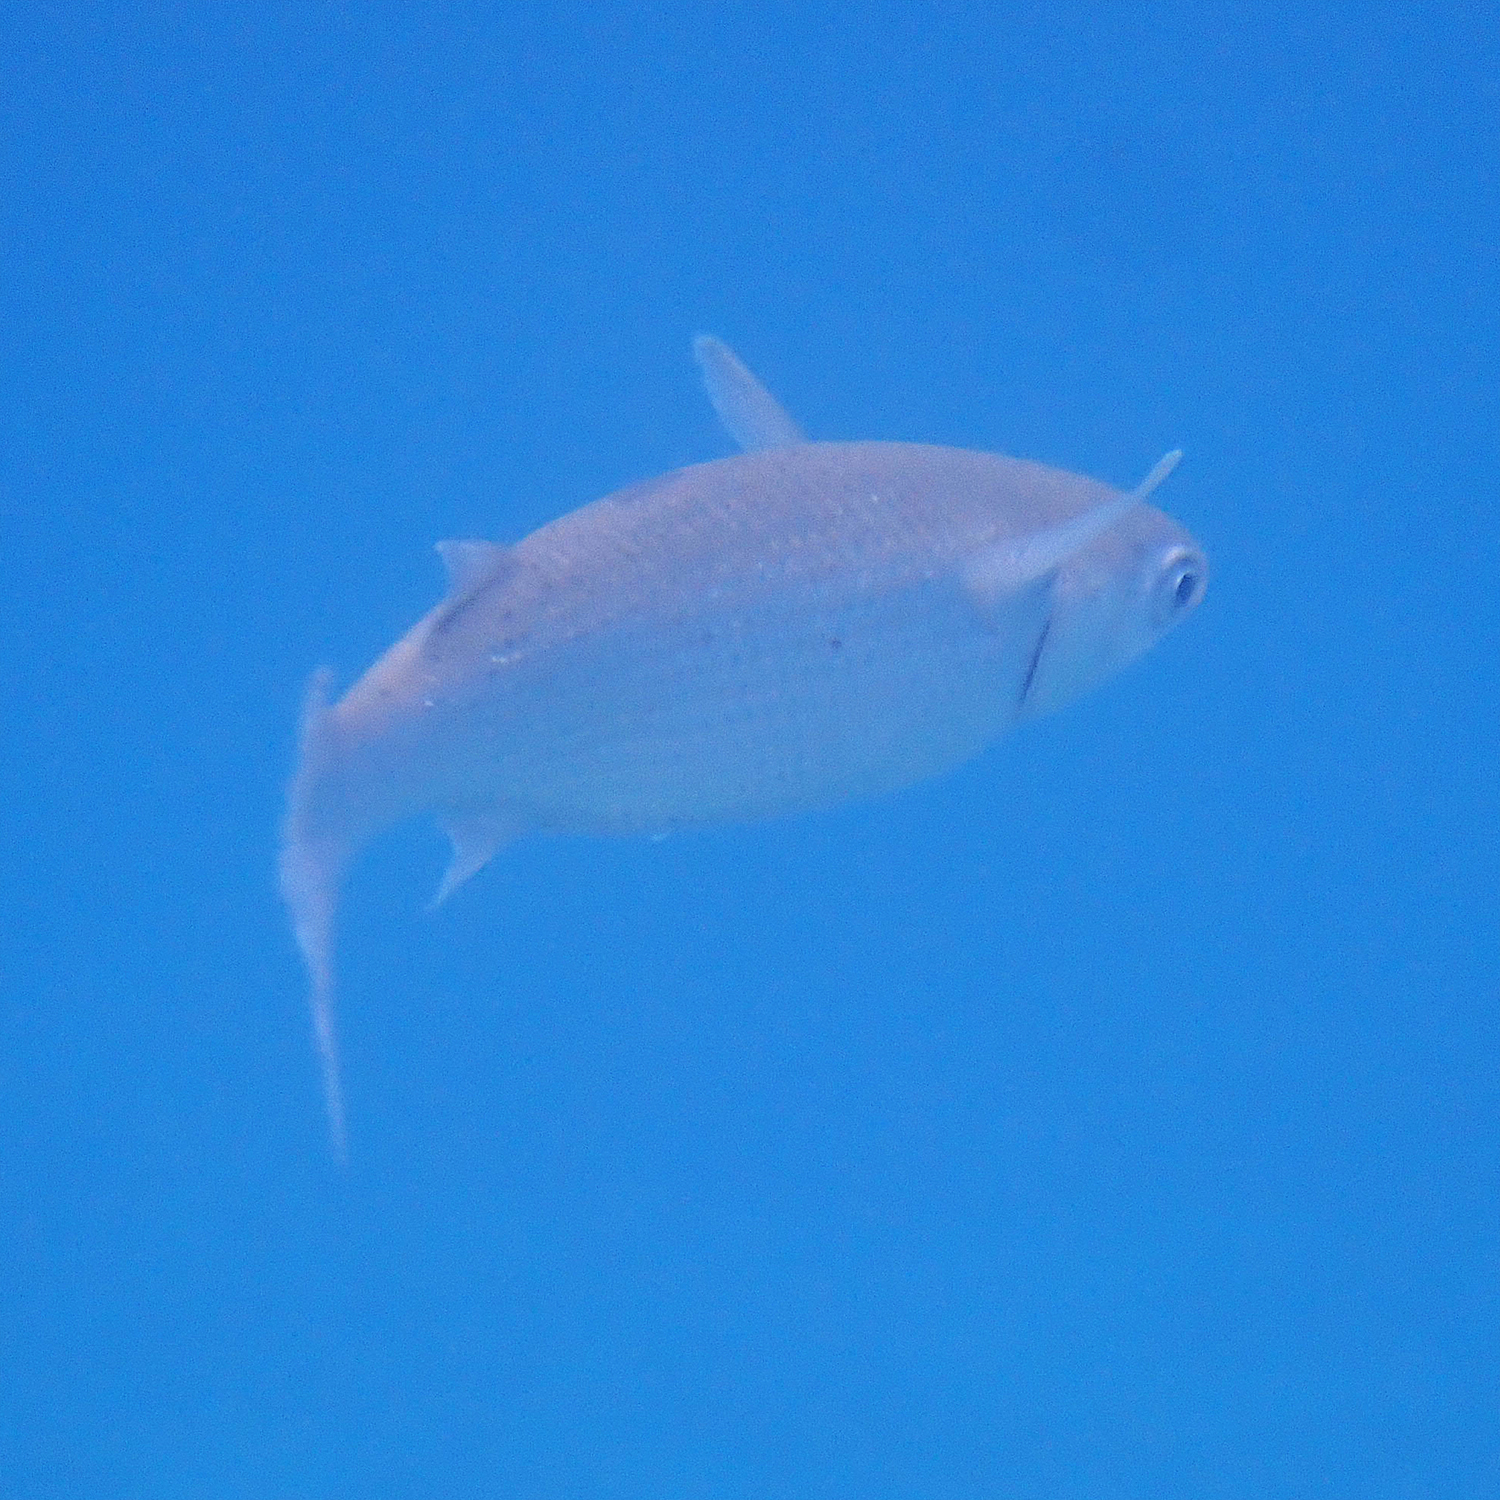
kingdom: Animalia
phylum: Chordata
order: Mugiliformes
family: Mugilidae
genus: Mugil
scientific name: Mugil cephalus
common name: Grey mullet
